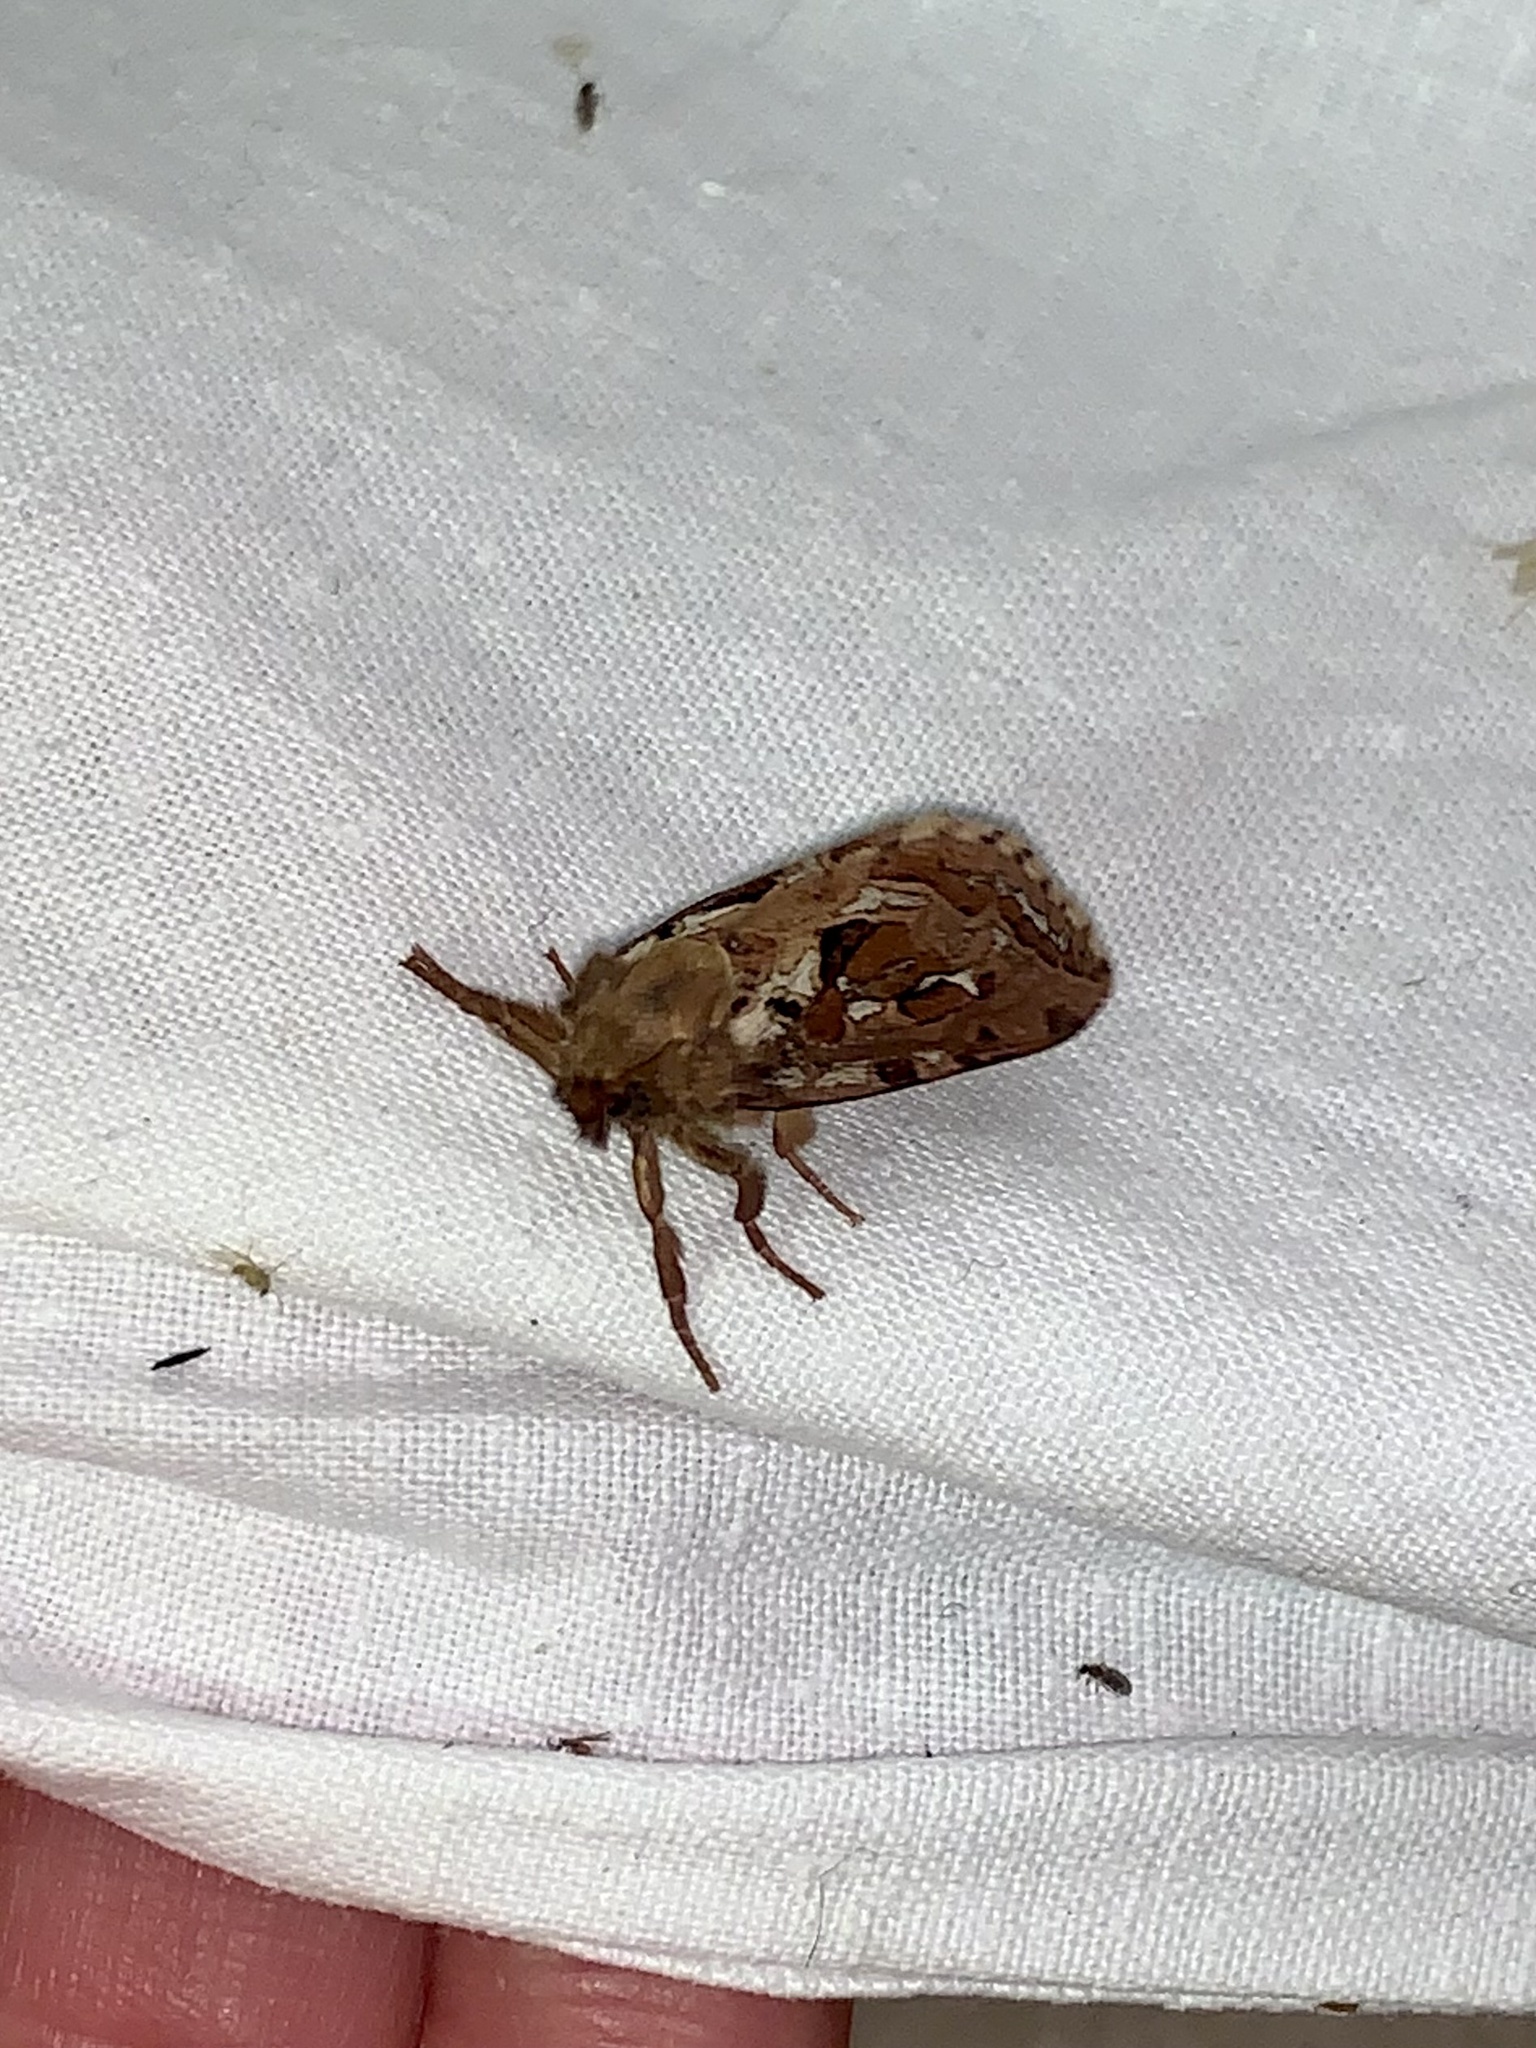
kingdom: Animalia
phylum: Arthropoda
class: Insecta
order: Lepidoptera
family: Hepialidae
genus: Korscheltellus
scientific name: Korscheltellus fusconebulosus
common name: Map-winged swift
